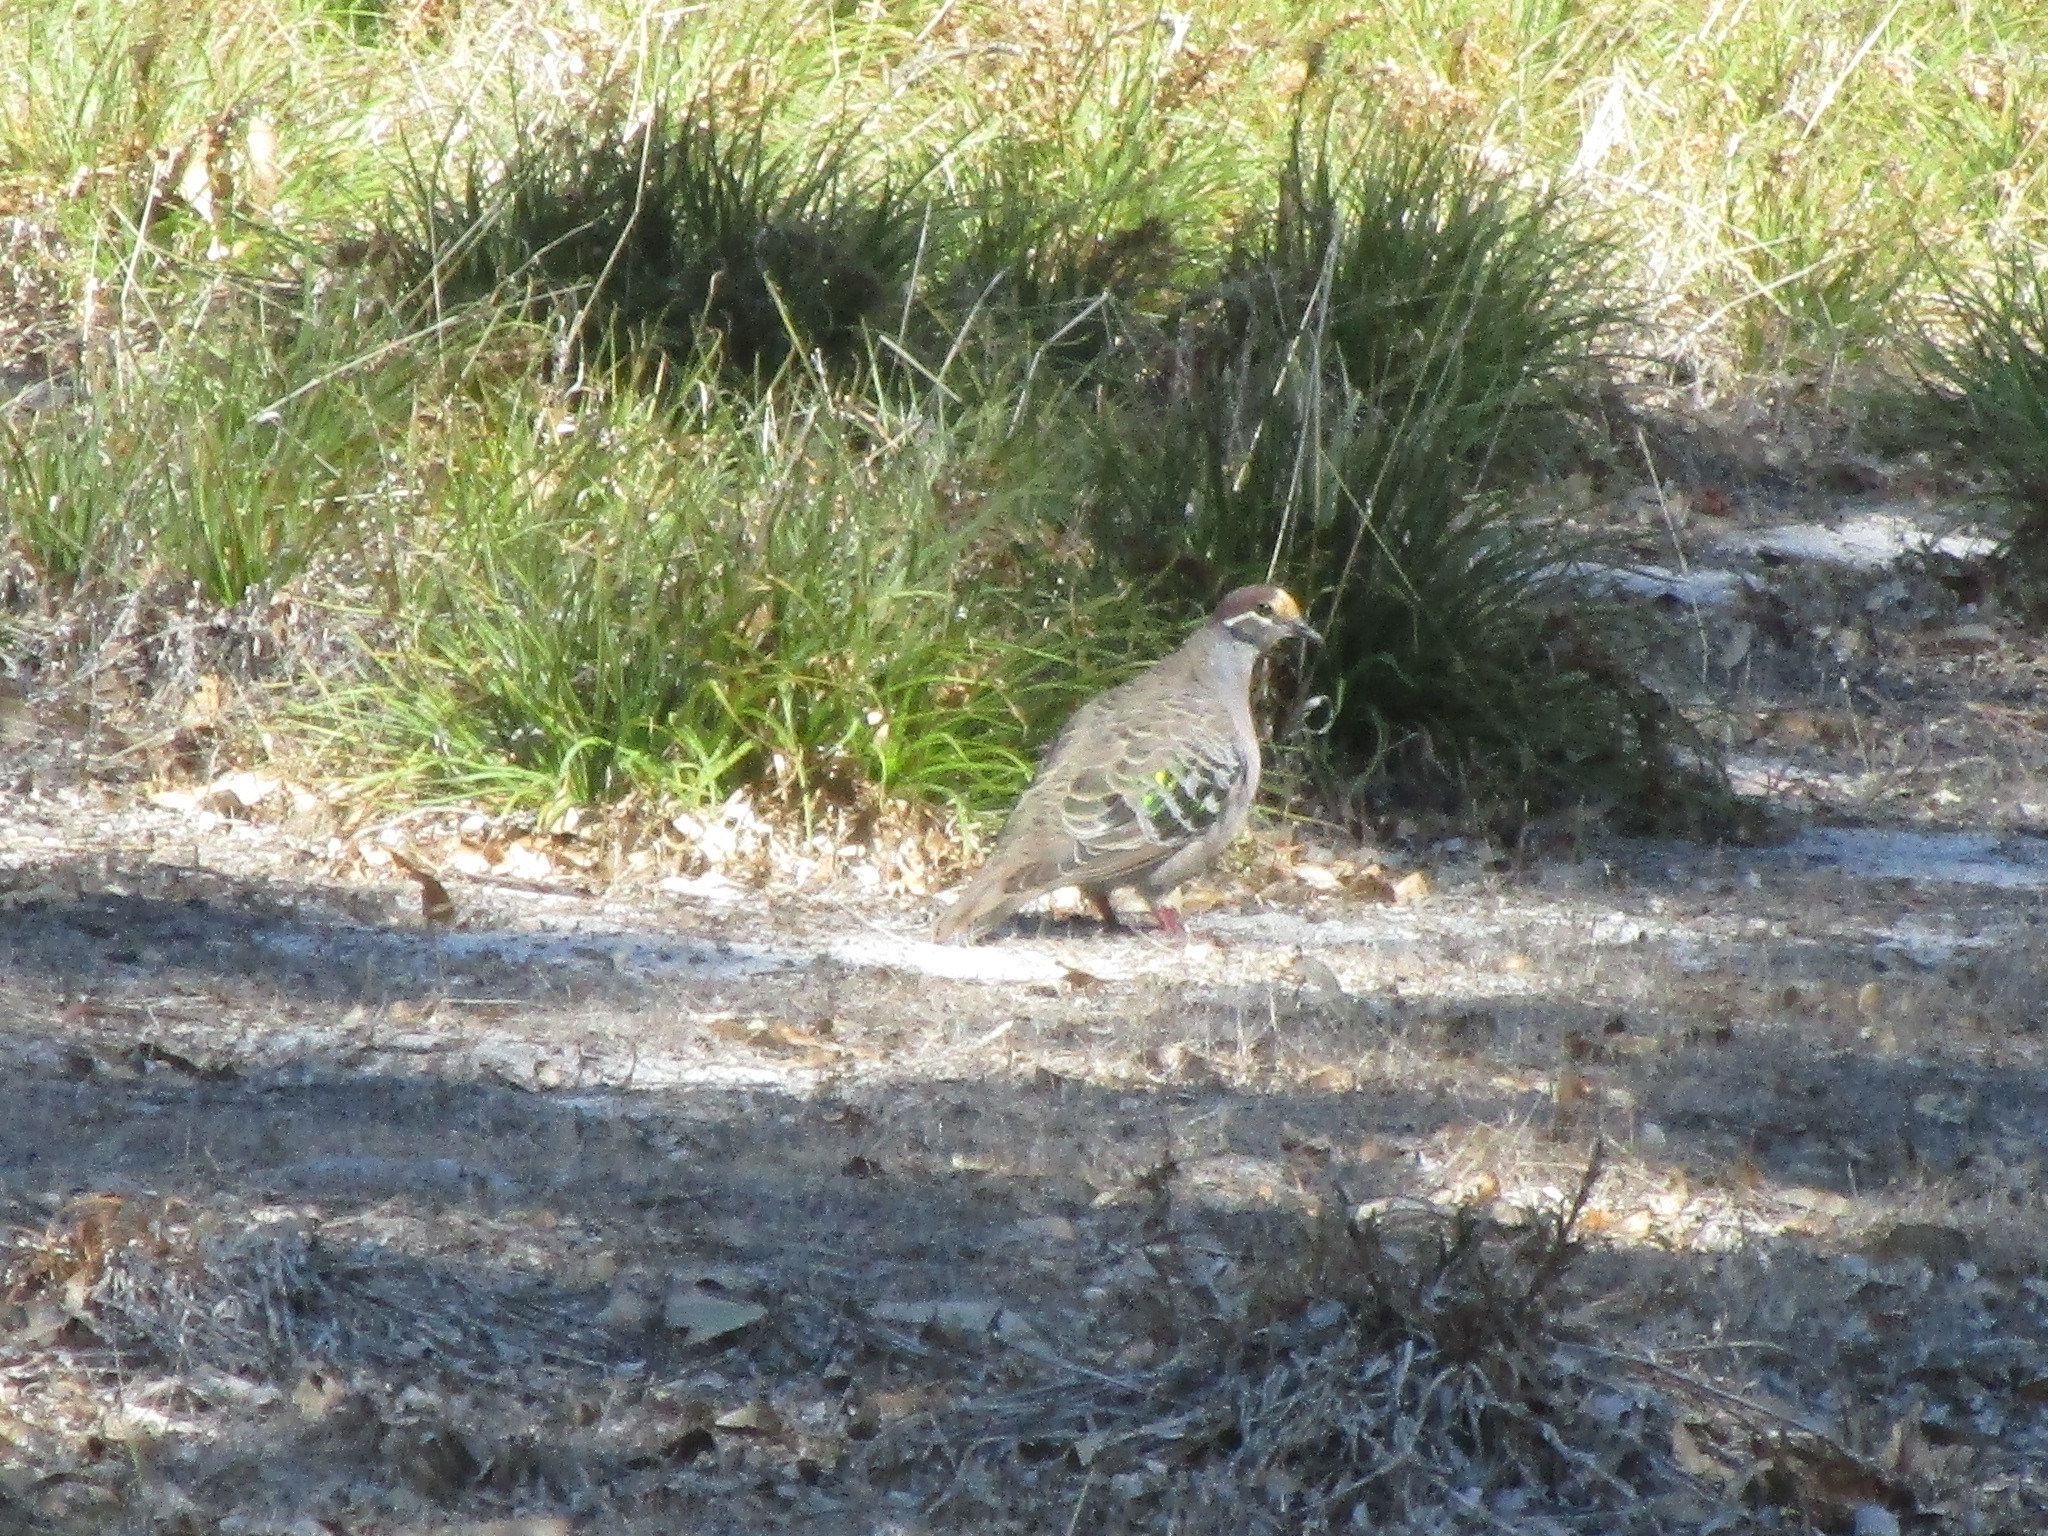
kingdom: Animalia
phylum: Chordata
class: Aves
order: Columbiformes
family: Columbidae
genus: Phaps
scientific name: Phaps chalcoptera
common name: Common bronzewing
